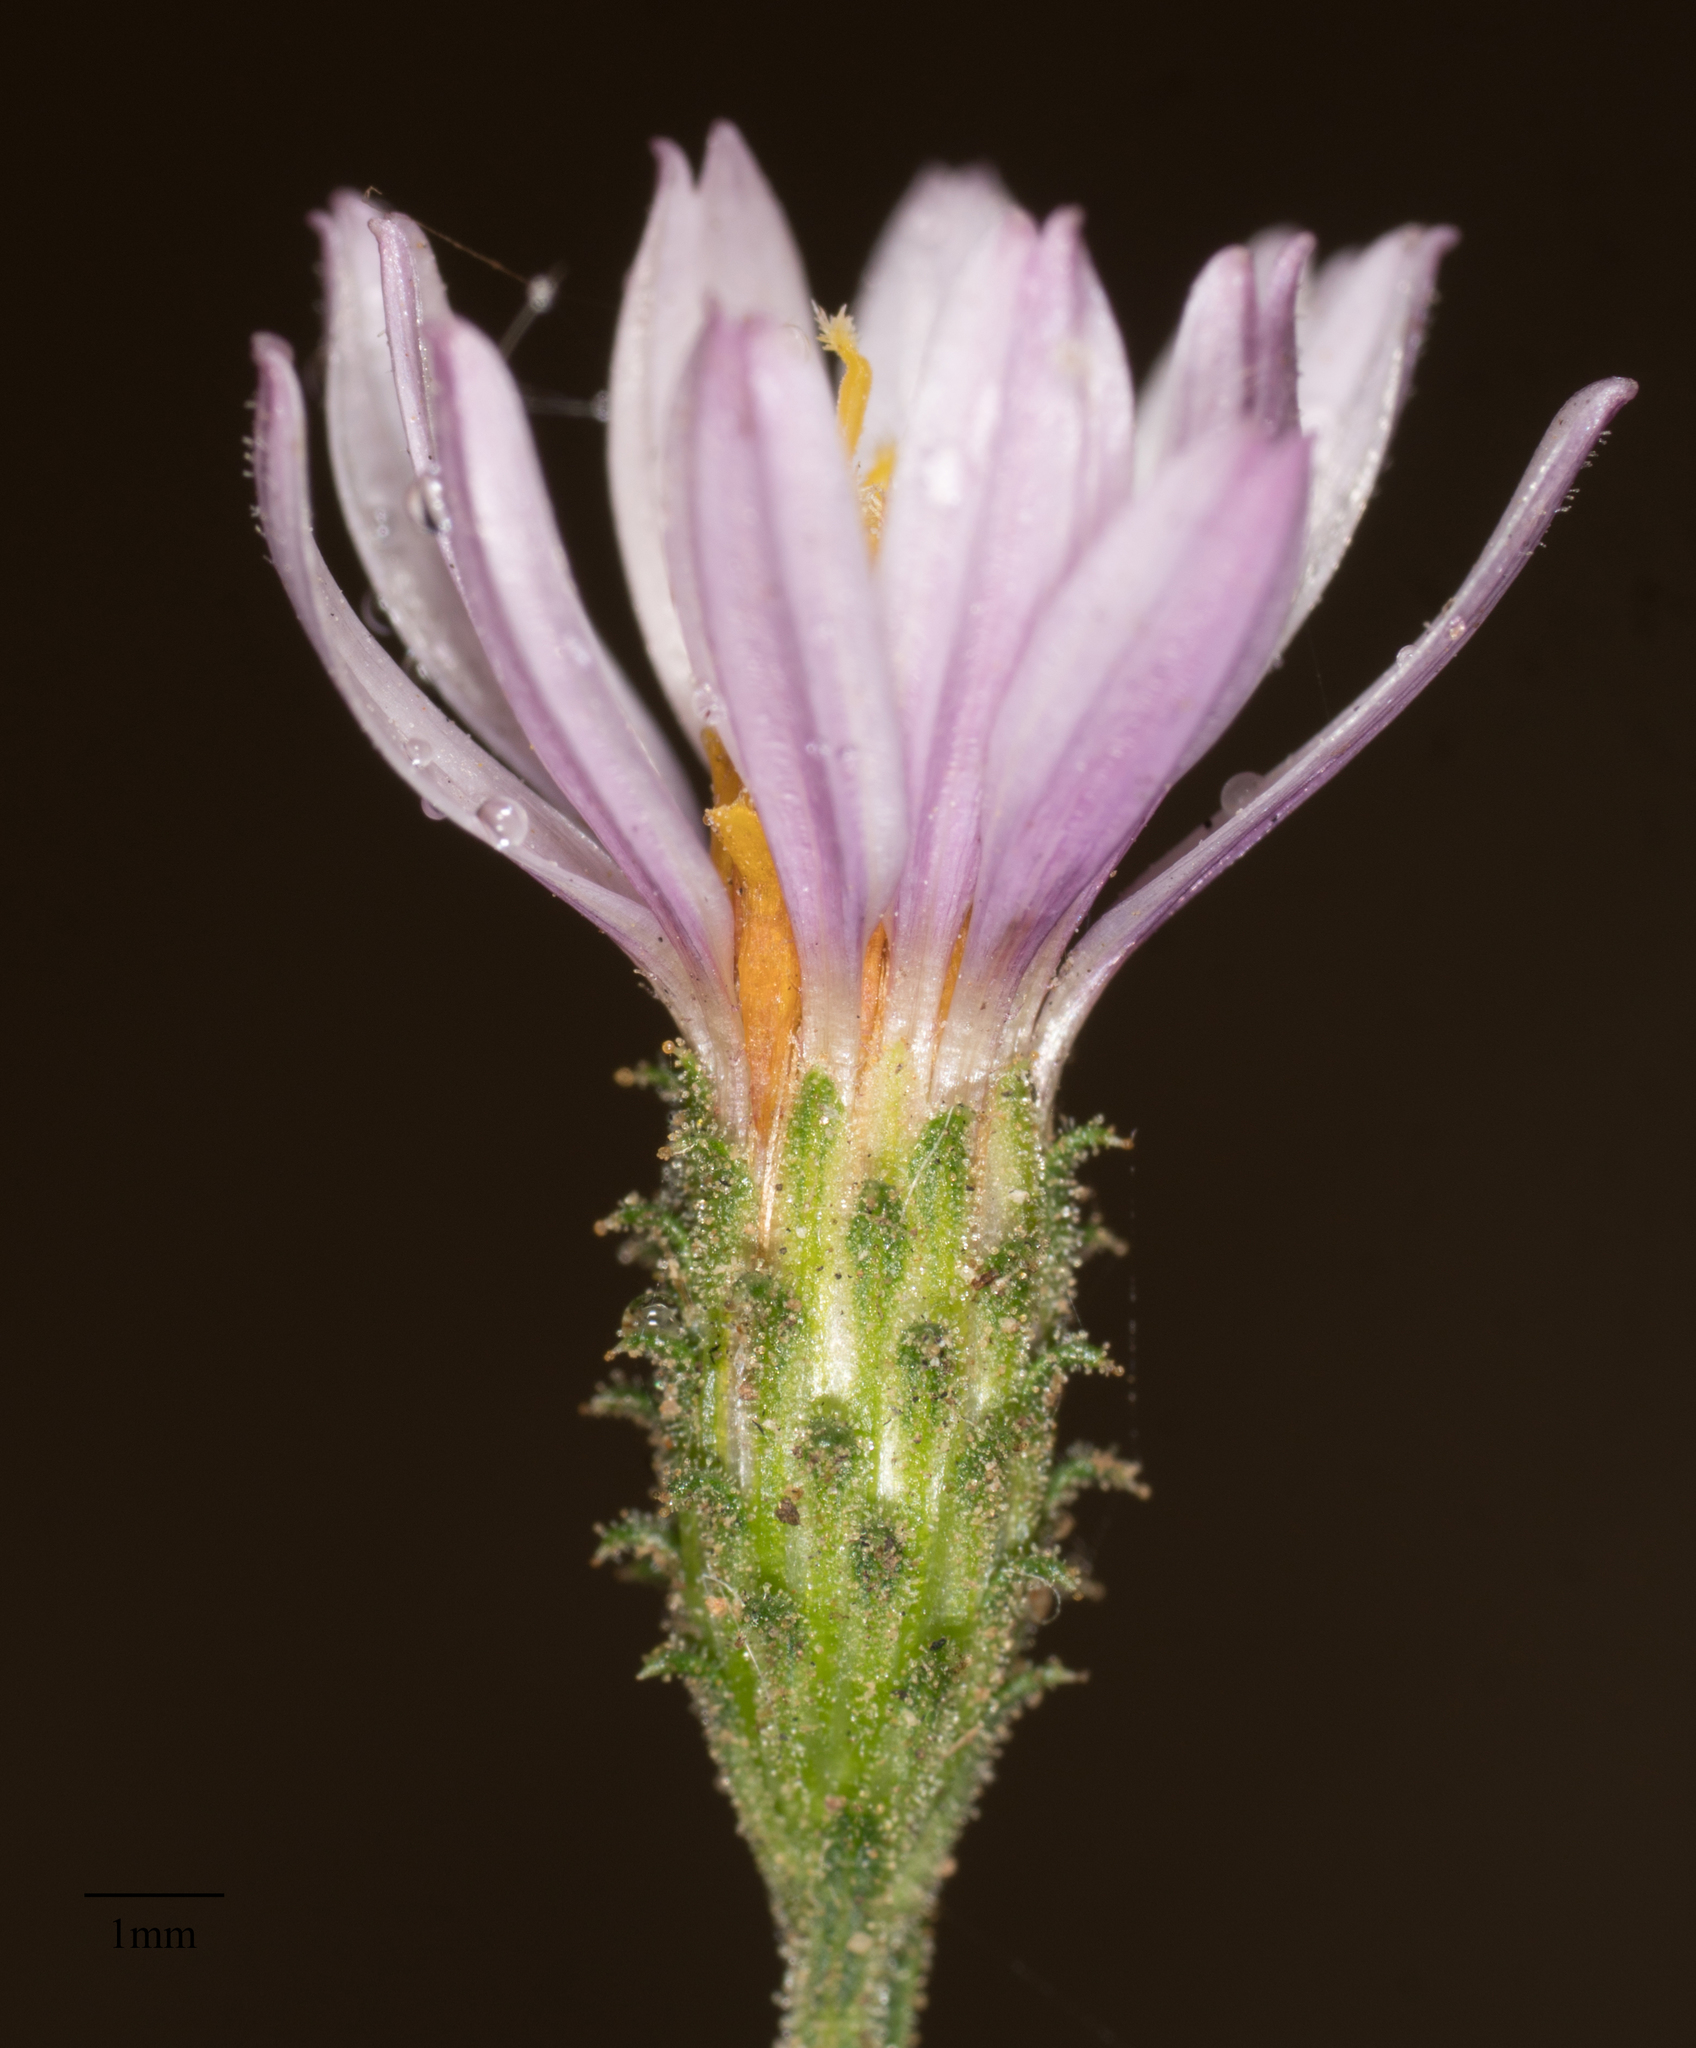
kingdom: Plantae
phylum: Tracheophyta
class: Magnoliopsida
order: Asterales
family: Asteraceae
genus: Corethrogyne
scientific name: Corethrogyne filaginifolia
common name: Sand-aster
